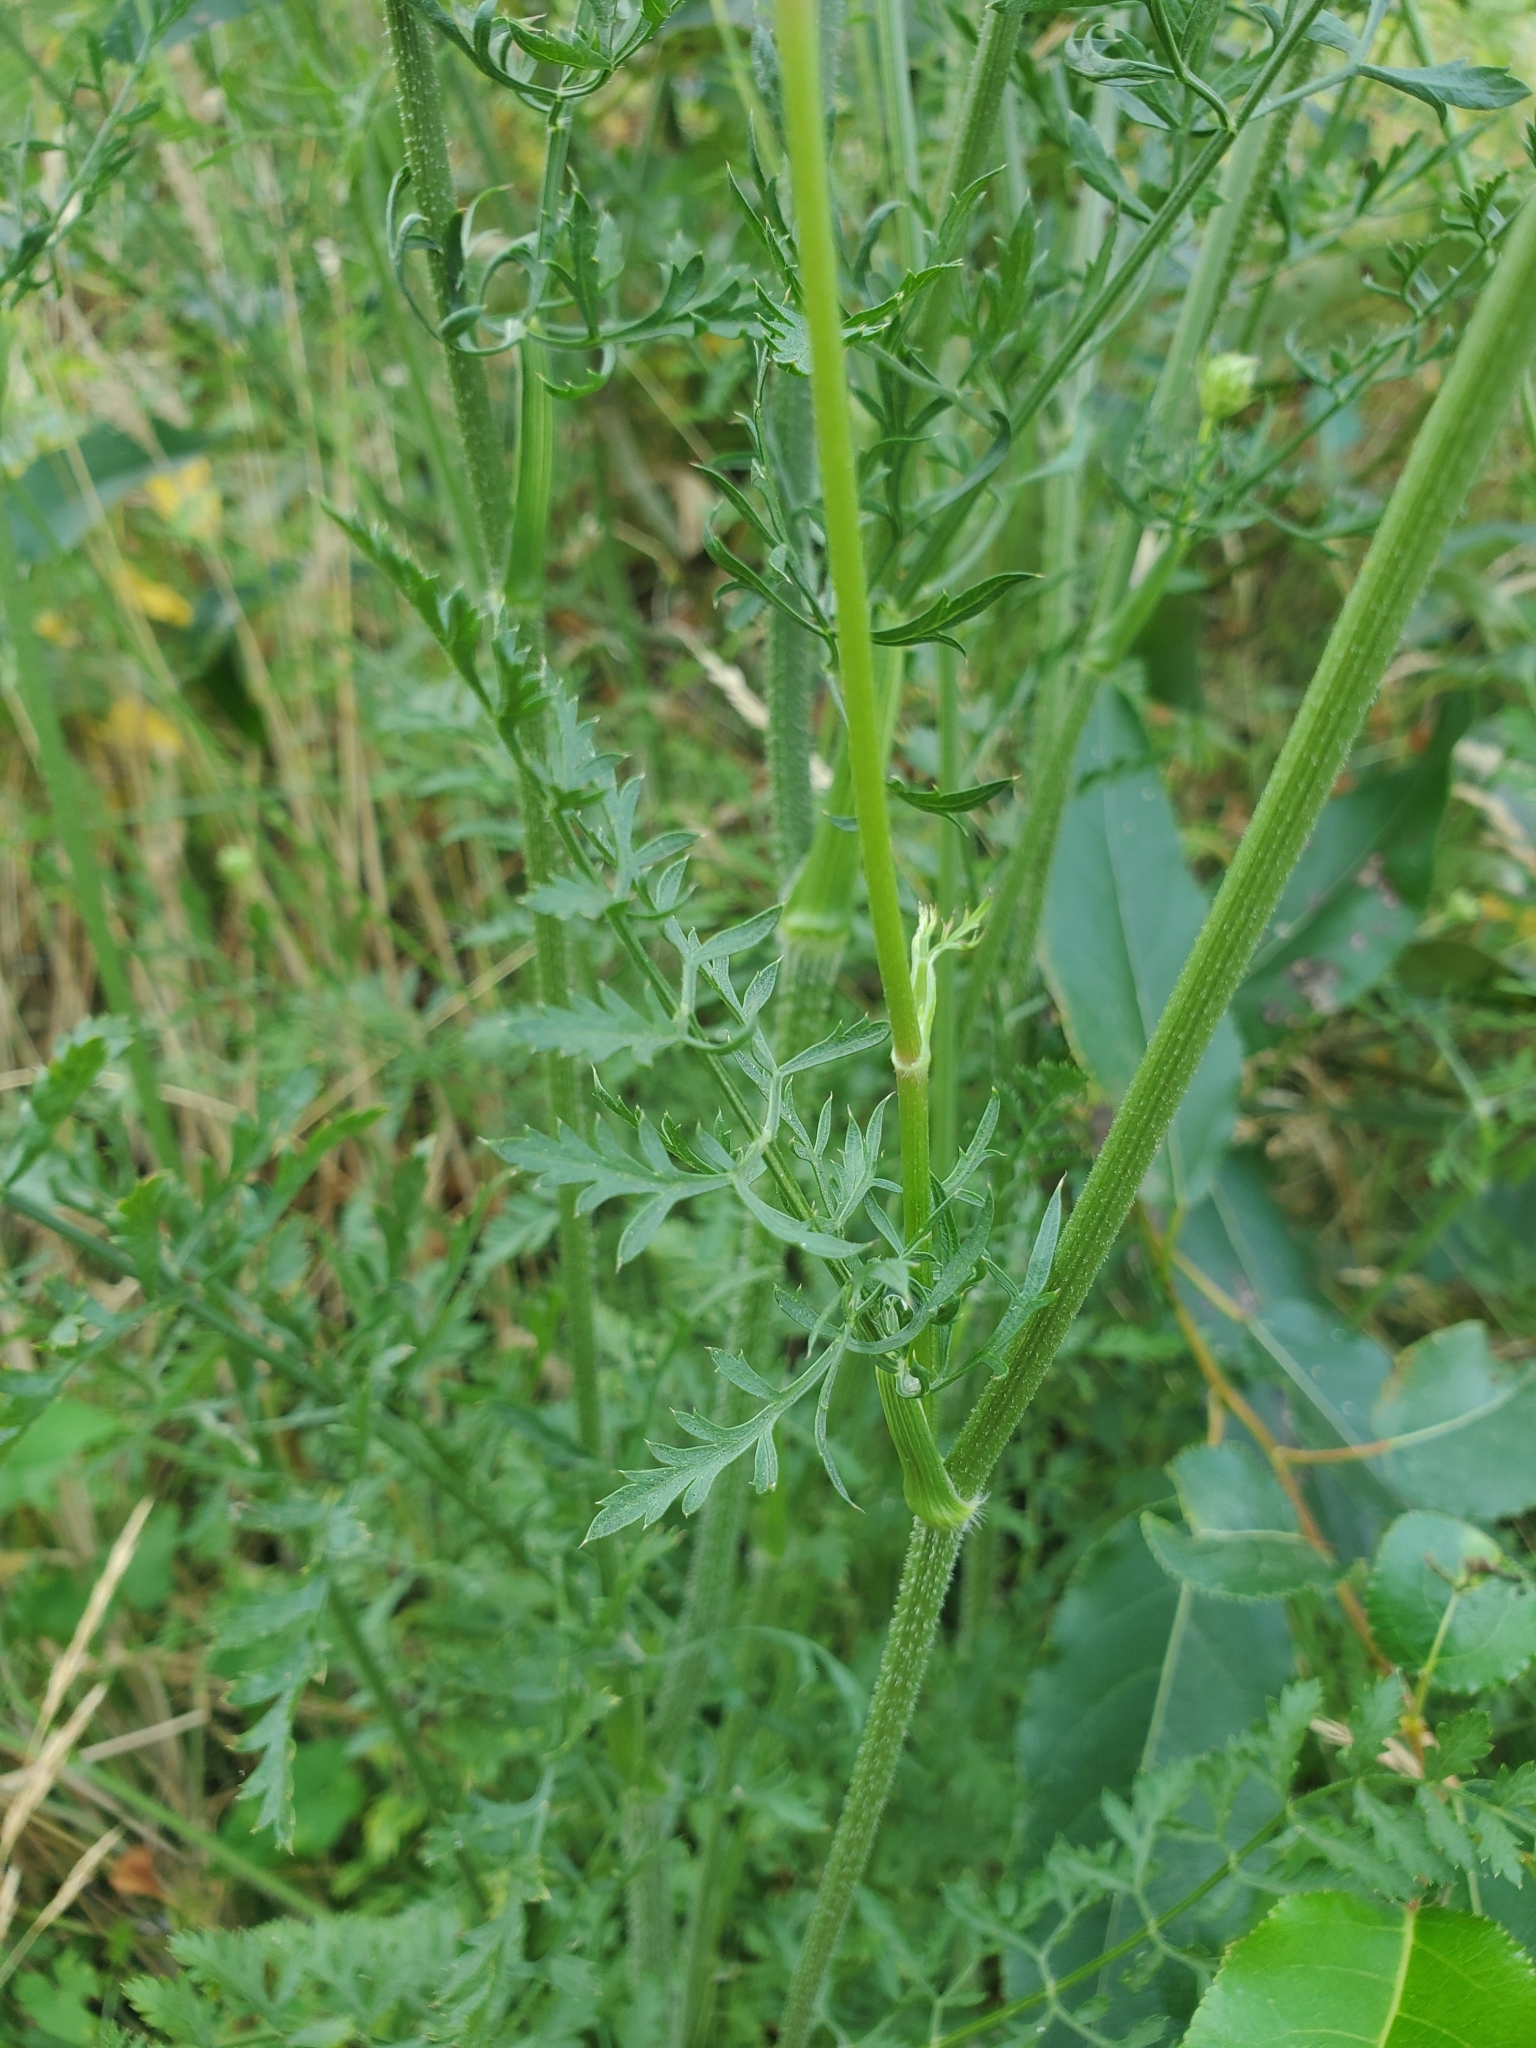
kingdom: Plantae
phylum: Tracheophyta
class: Magnoliopsida
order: Apiales
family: Apiaceae
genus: Daucus
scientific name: Daucus carota
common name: Wild carrot
